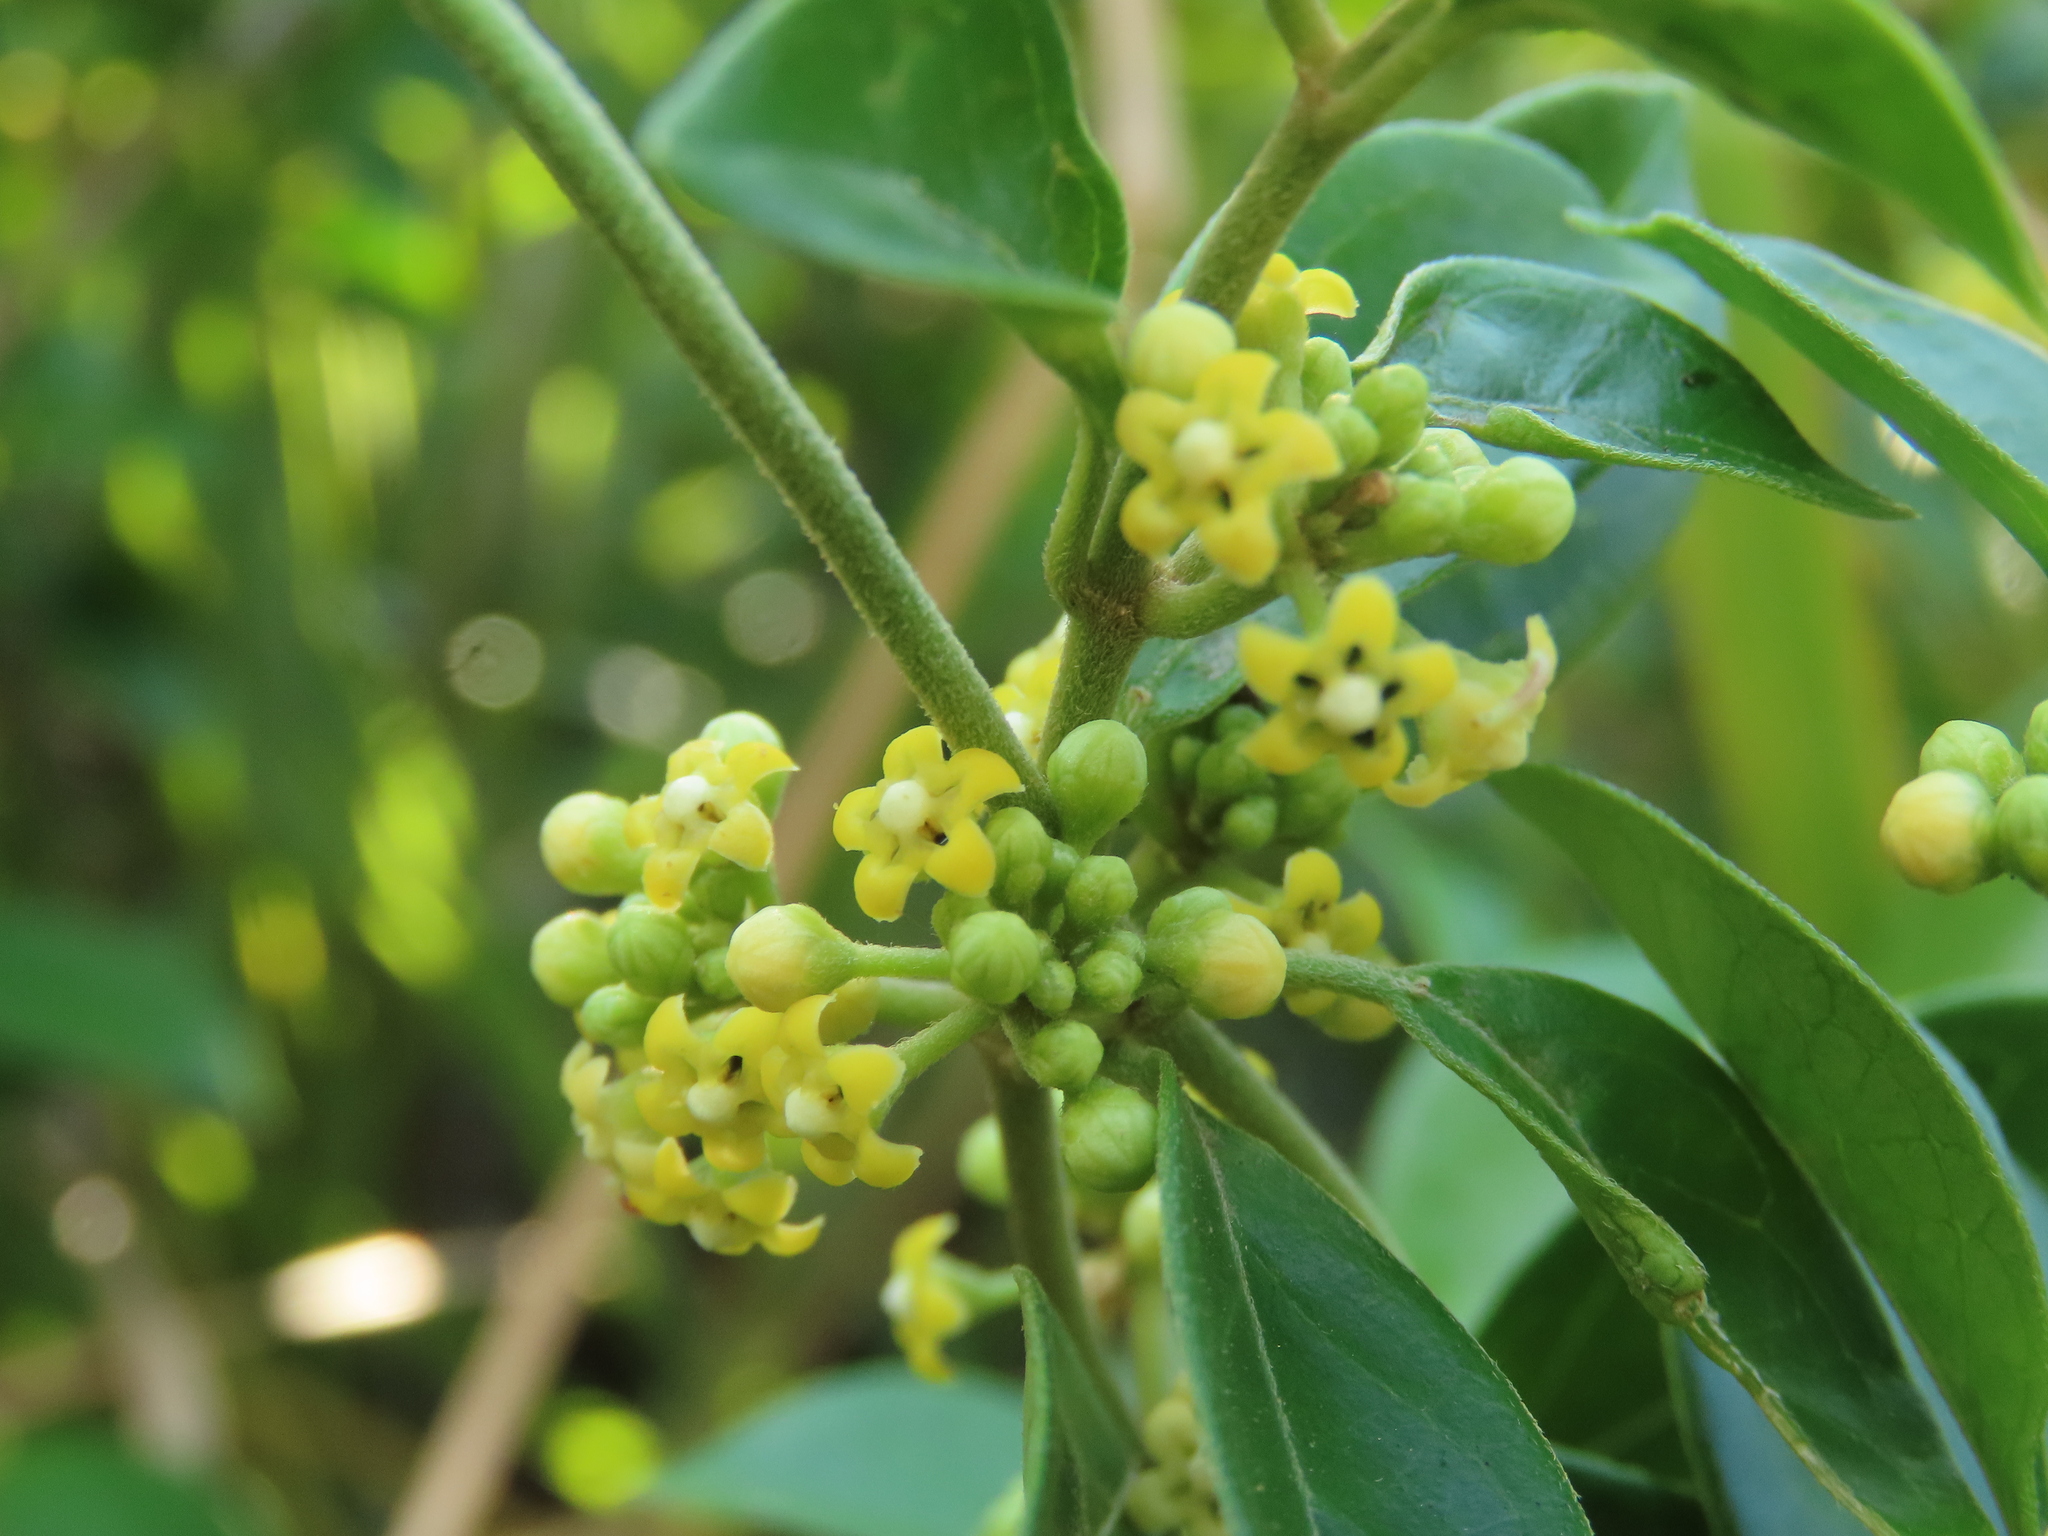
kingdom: Plantae
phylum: Tracheophyta
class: Magnoliopsida
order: Gentianales
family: Apocynaceae
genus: Gymnema
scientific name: Gymnema sylvestre
